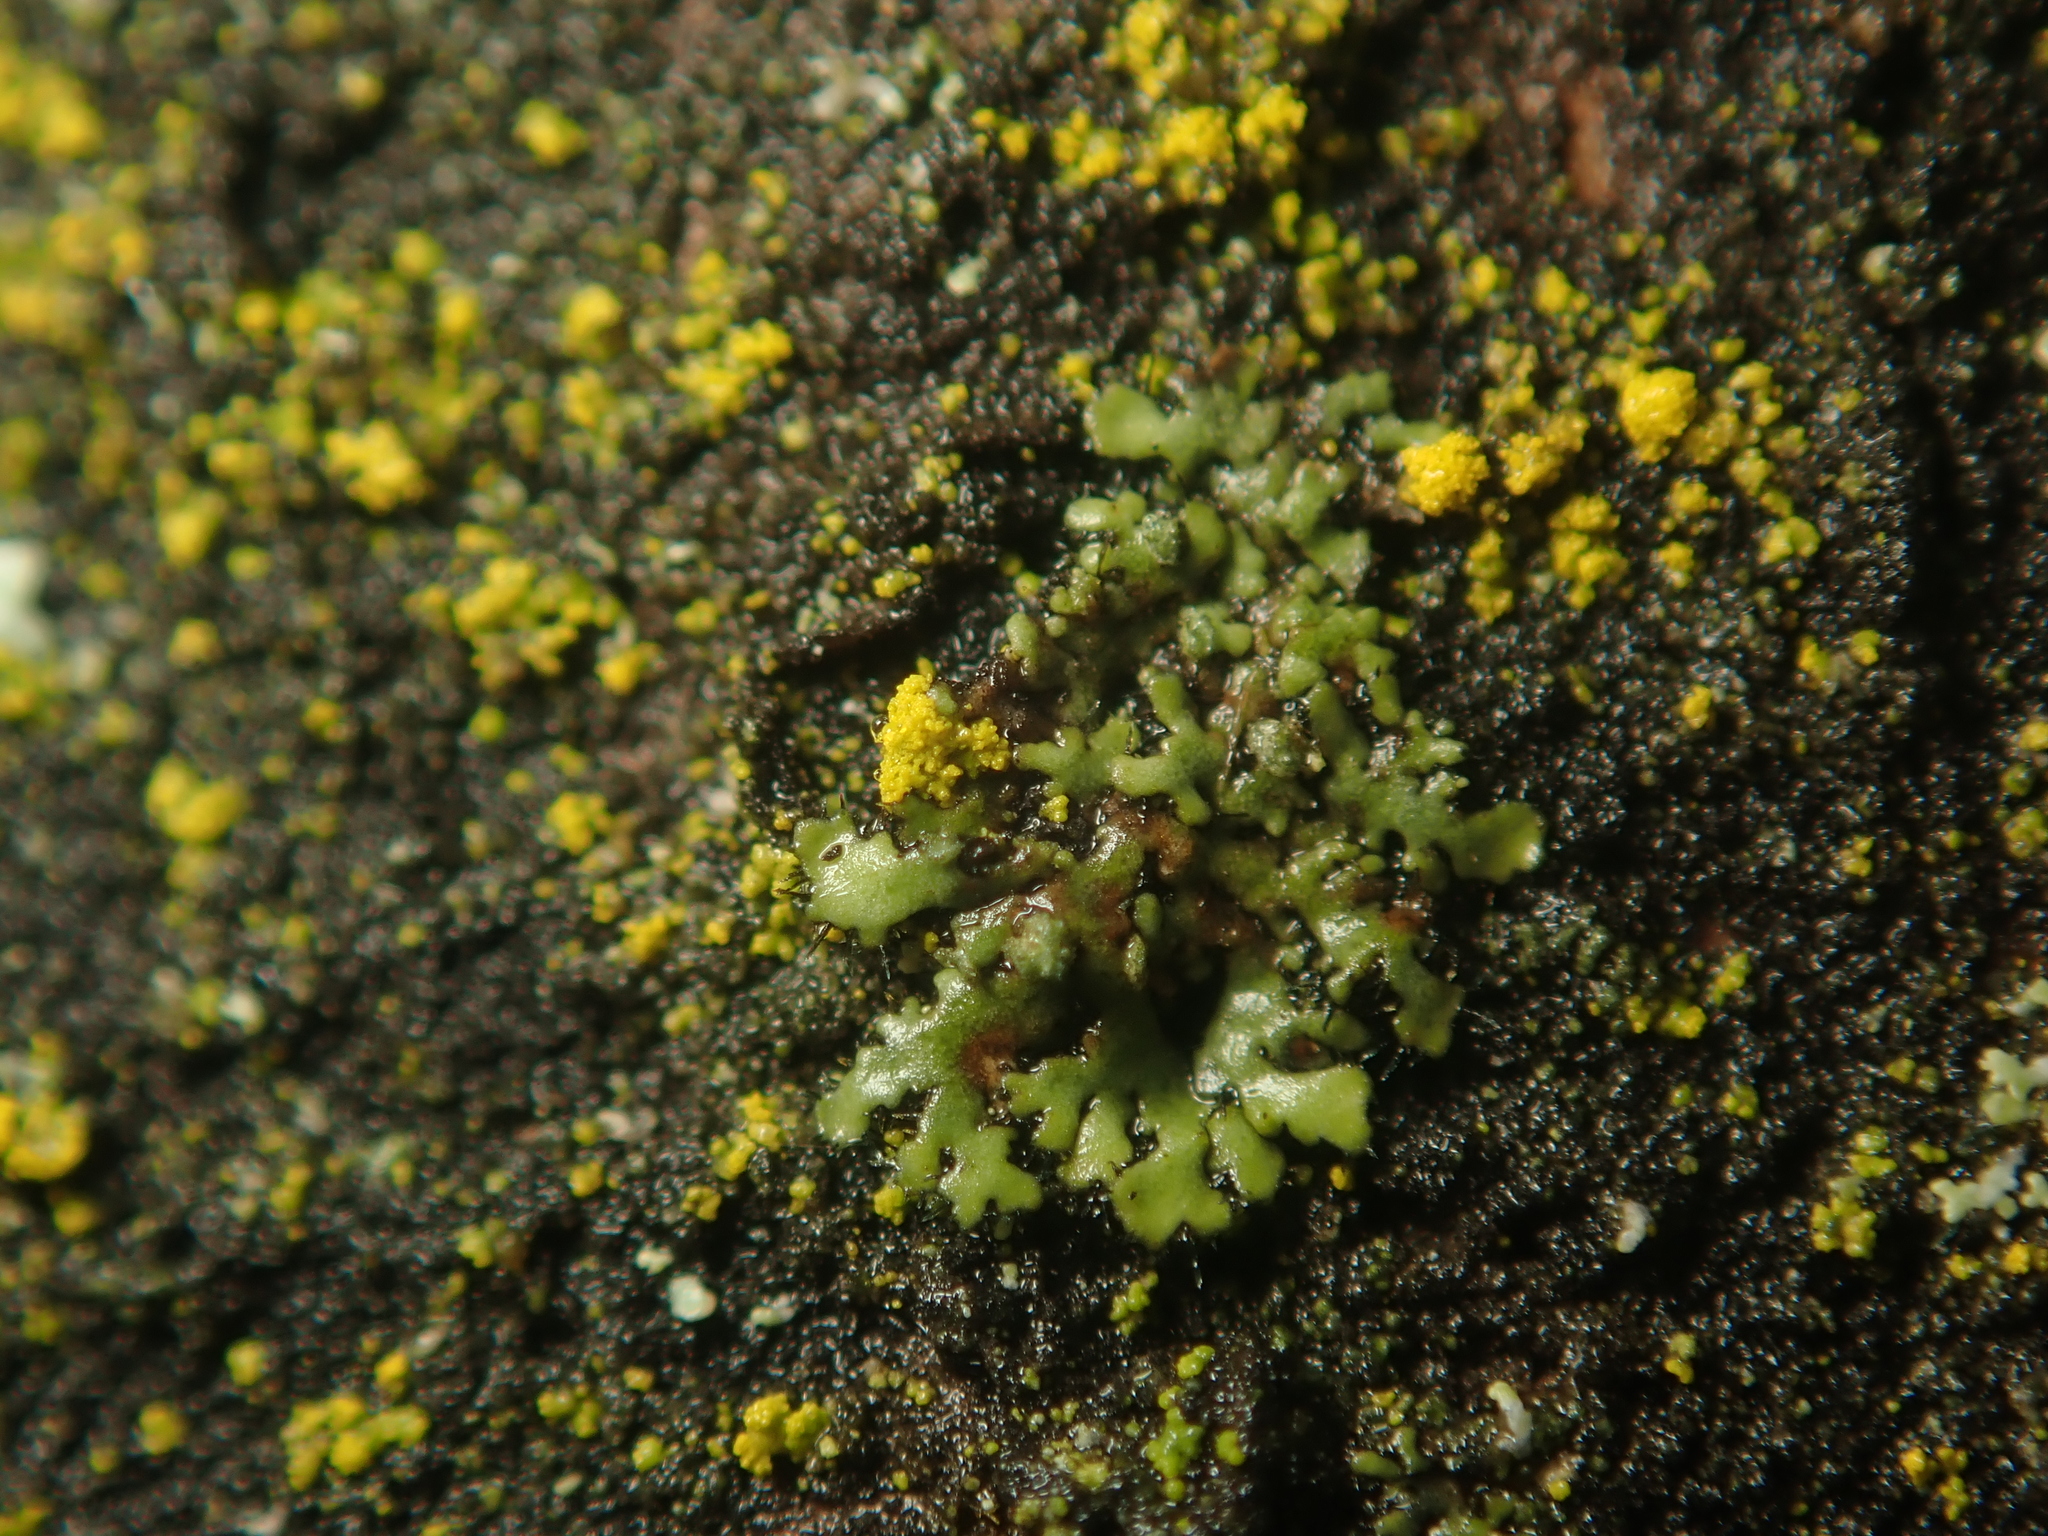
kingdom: Fungi
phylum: Ascomycota
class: Lecanoromycetes
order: Caliciales
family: Physciaceae
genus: Phaeophyscia
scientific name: Phaeophyscia orbicularis
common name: Mealy shadow lichen
